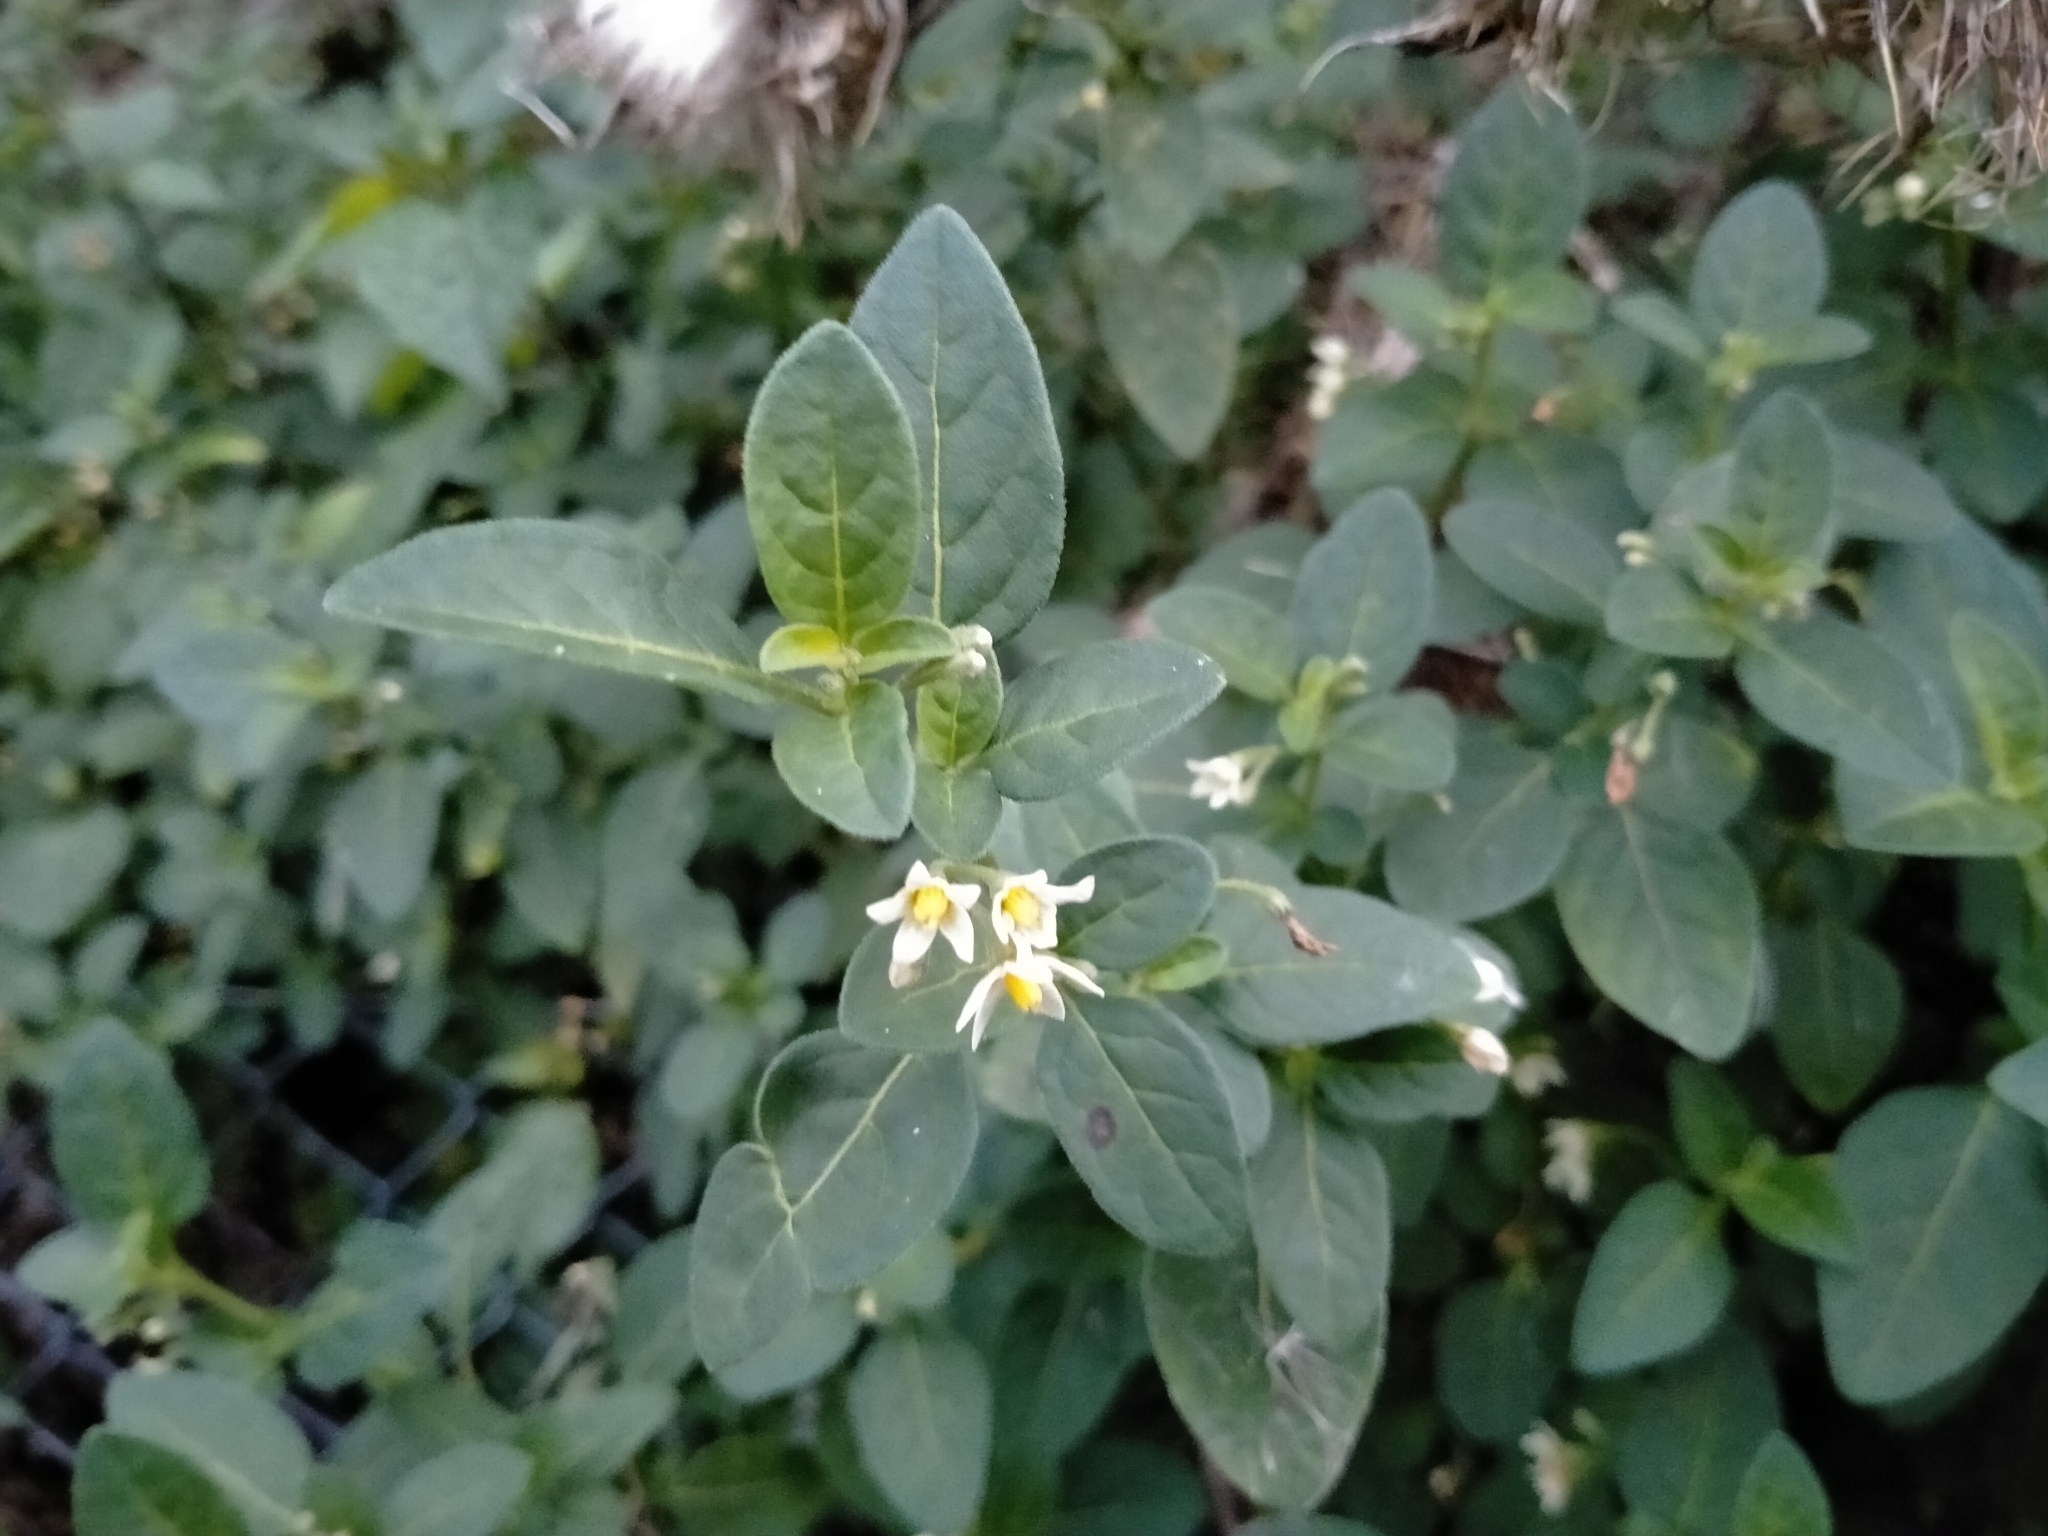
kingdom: Plantae
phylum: Tracheophyta
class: Magnoliopsida
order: Solanales
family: Solanaceae
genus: Solanum
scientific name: Solanum chenopodioides
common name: Tall nightshade
